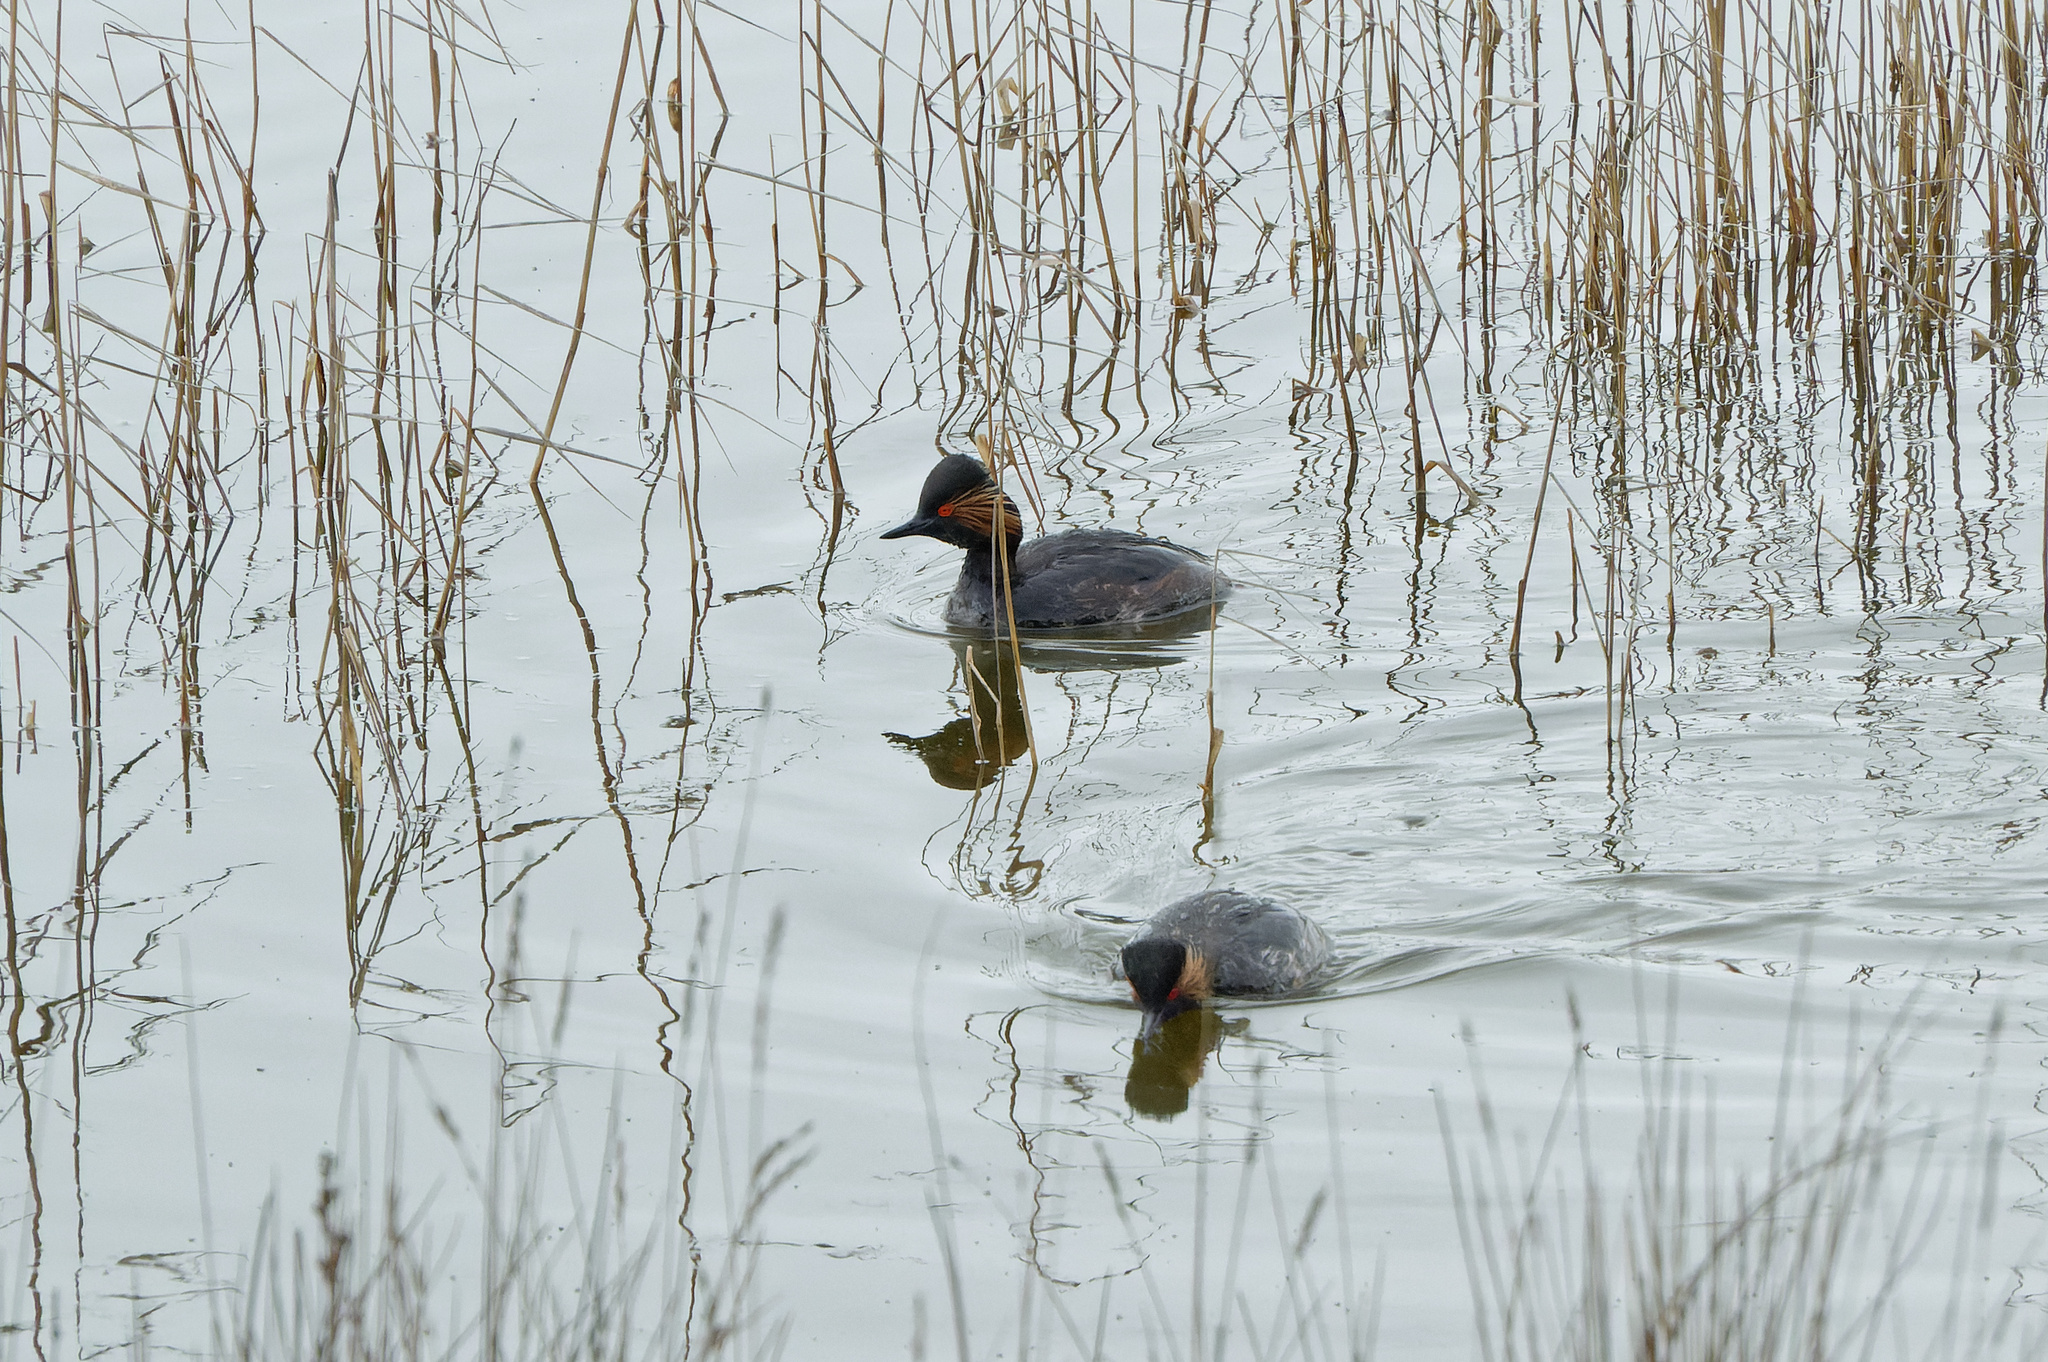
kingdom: Animalia
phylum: Chordata
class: Aves
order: Podicipediformes
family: Podicipedidae
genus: Podiceps
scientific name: Podiceps nigricollis
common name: Black-necked grebe
